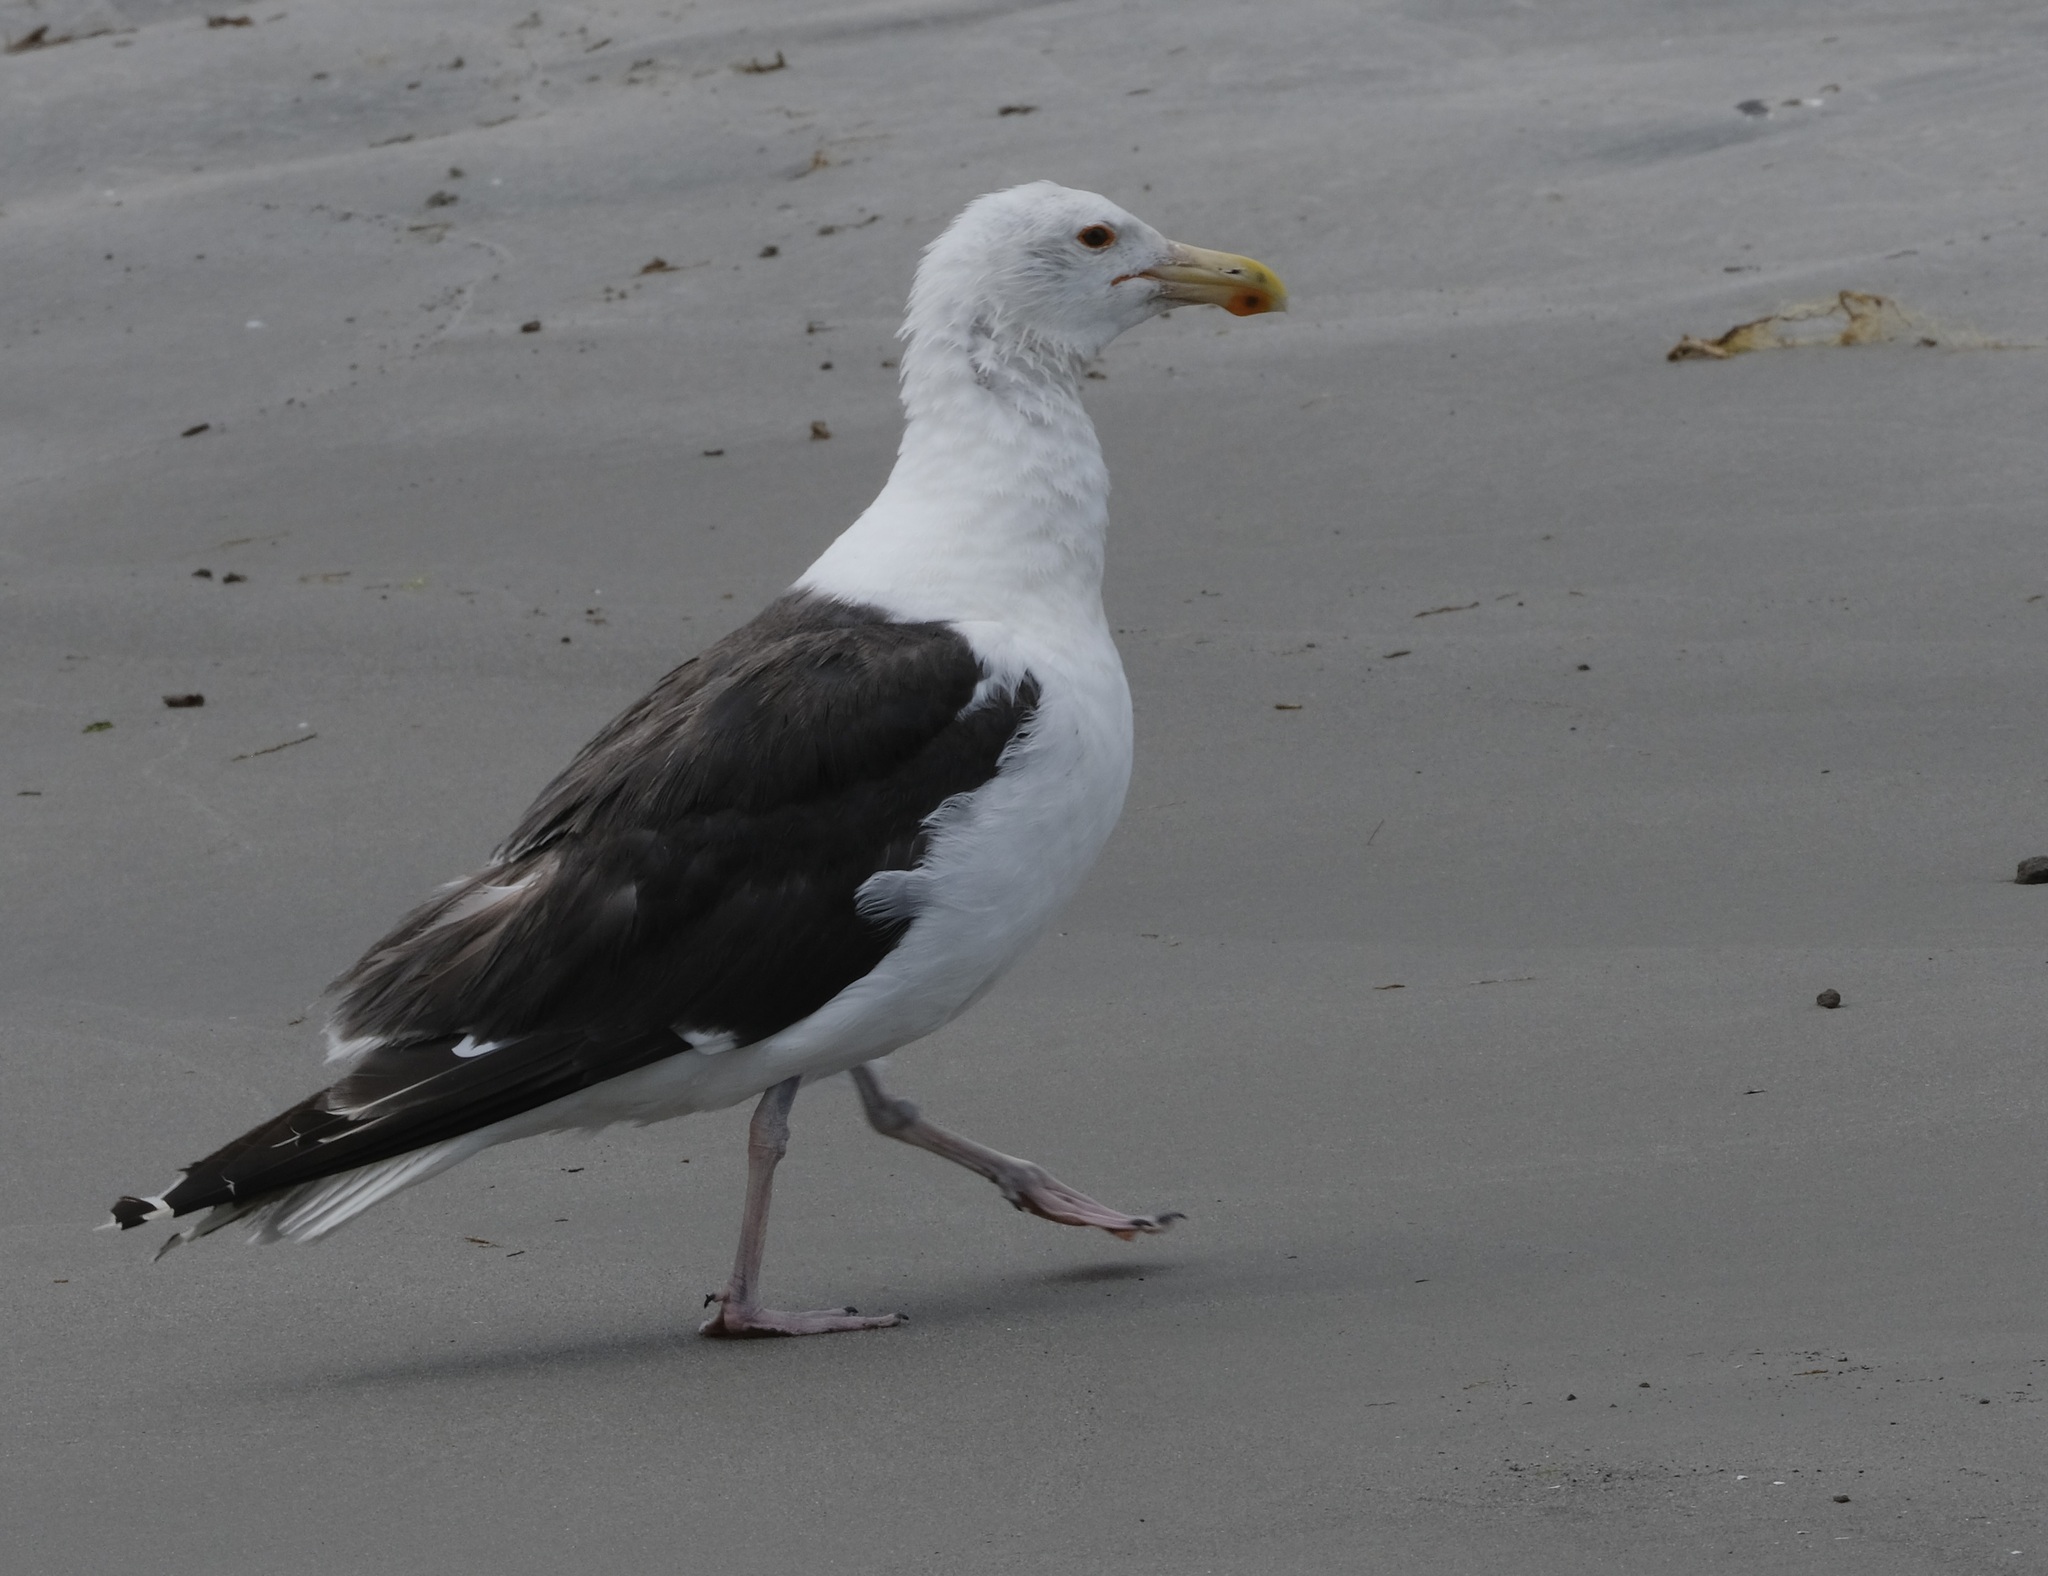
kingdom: Animalia
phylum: Chordata
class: Aves
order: Charadriiformes
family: Laridae
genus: Larus
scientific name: Larus marinus
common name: Great black-backed gull
